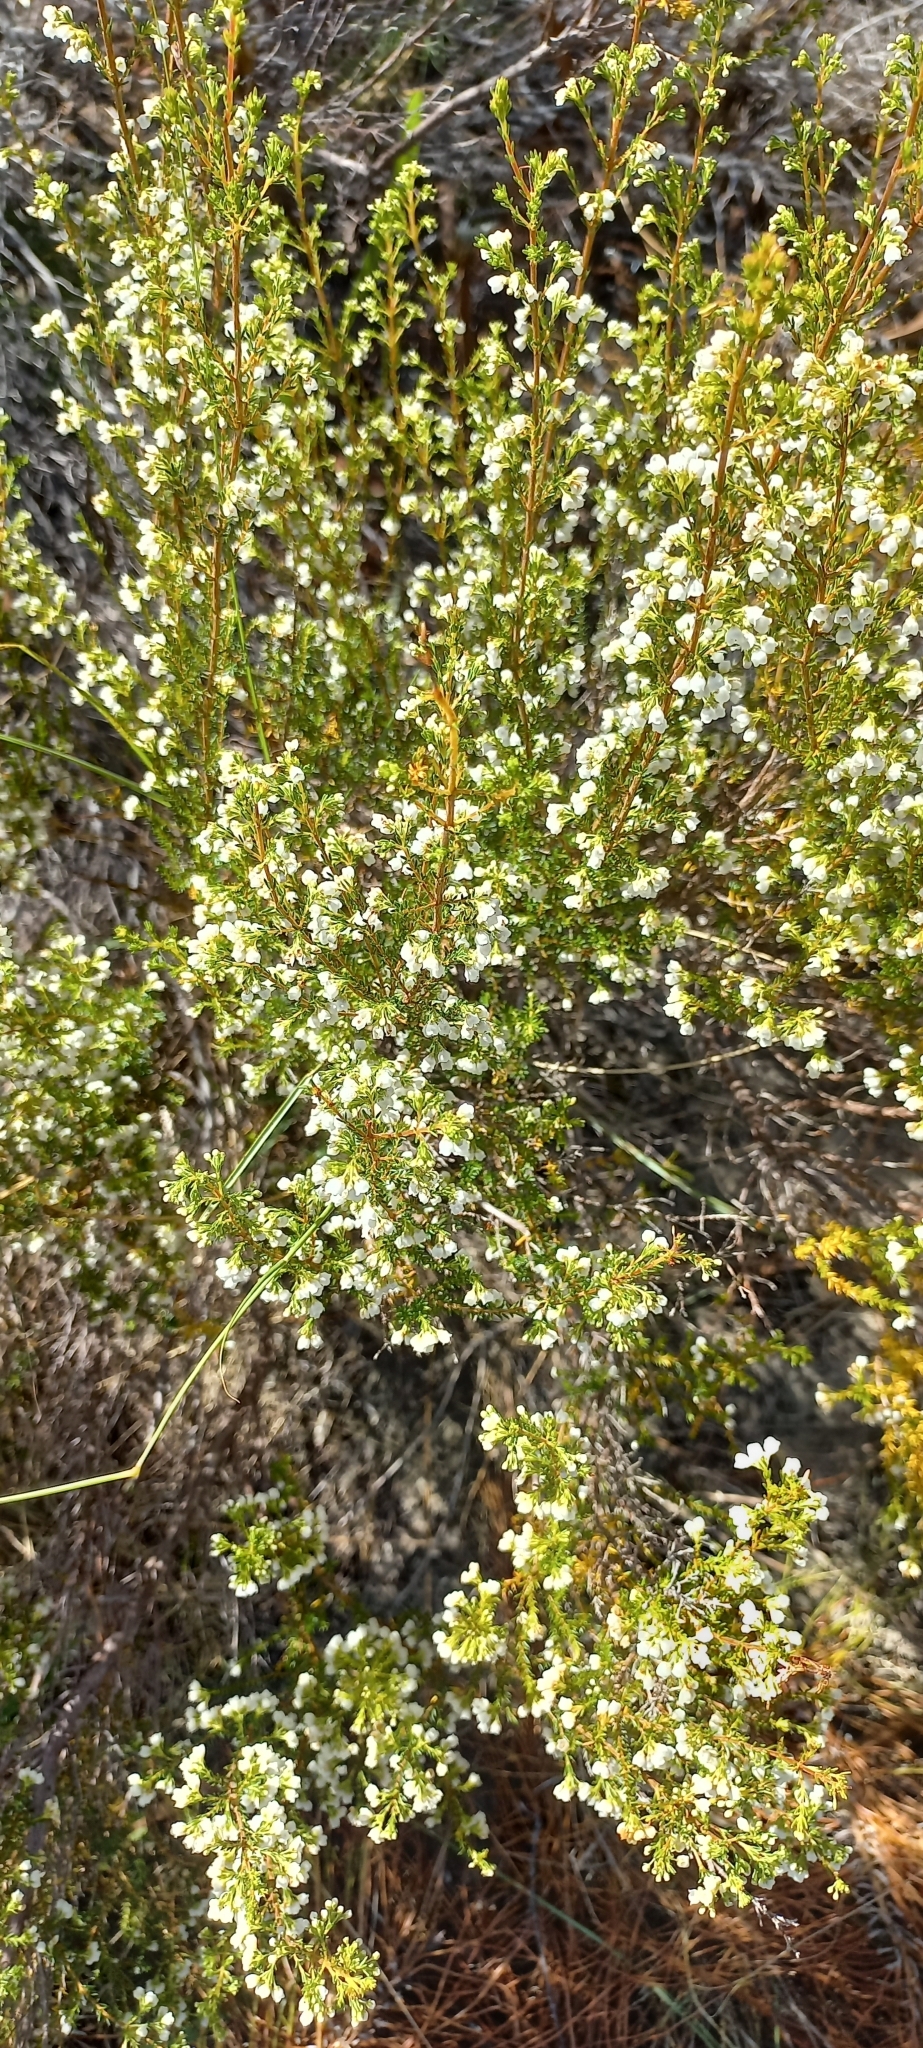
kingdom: Plantae
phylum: Tracheophyta
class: Magnoliopsida
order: Ericales
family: Ericaceae
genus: Erica
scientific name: Erica subdivaricata
